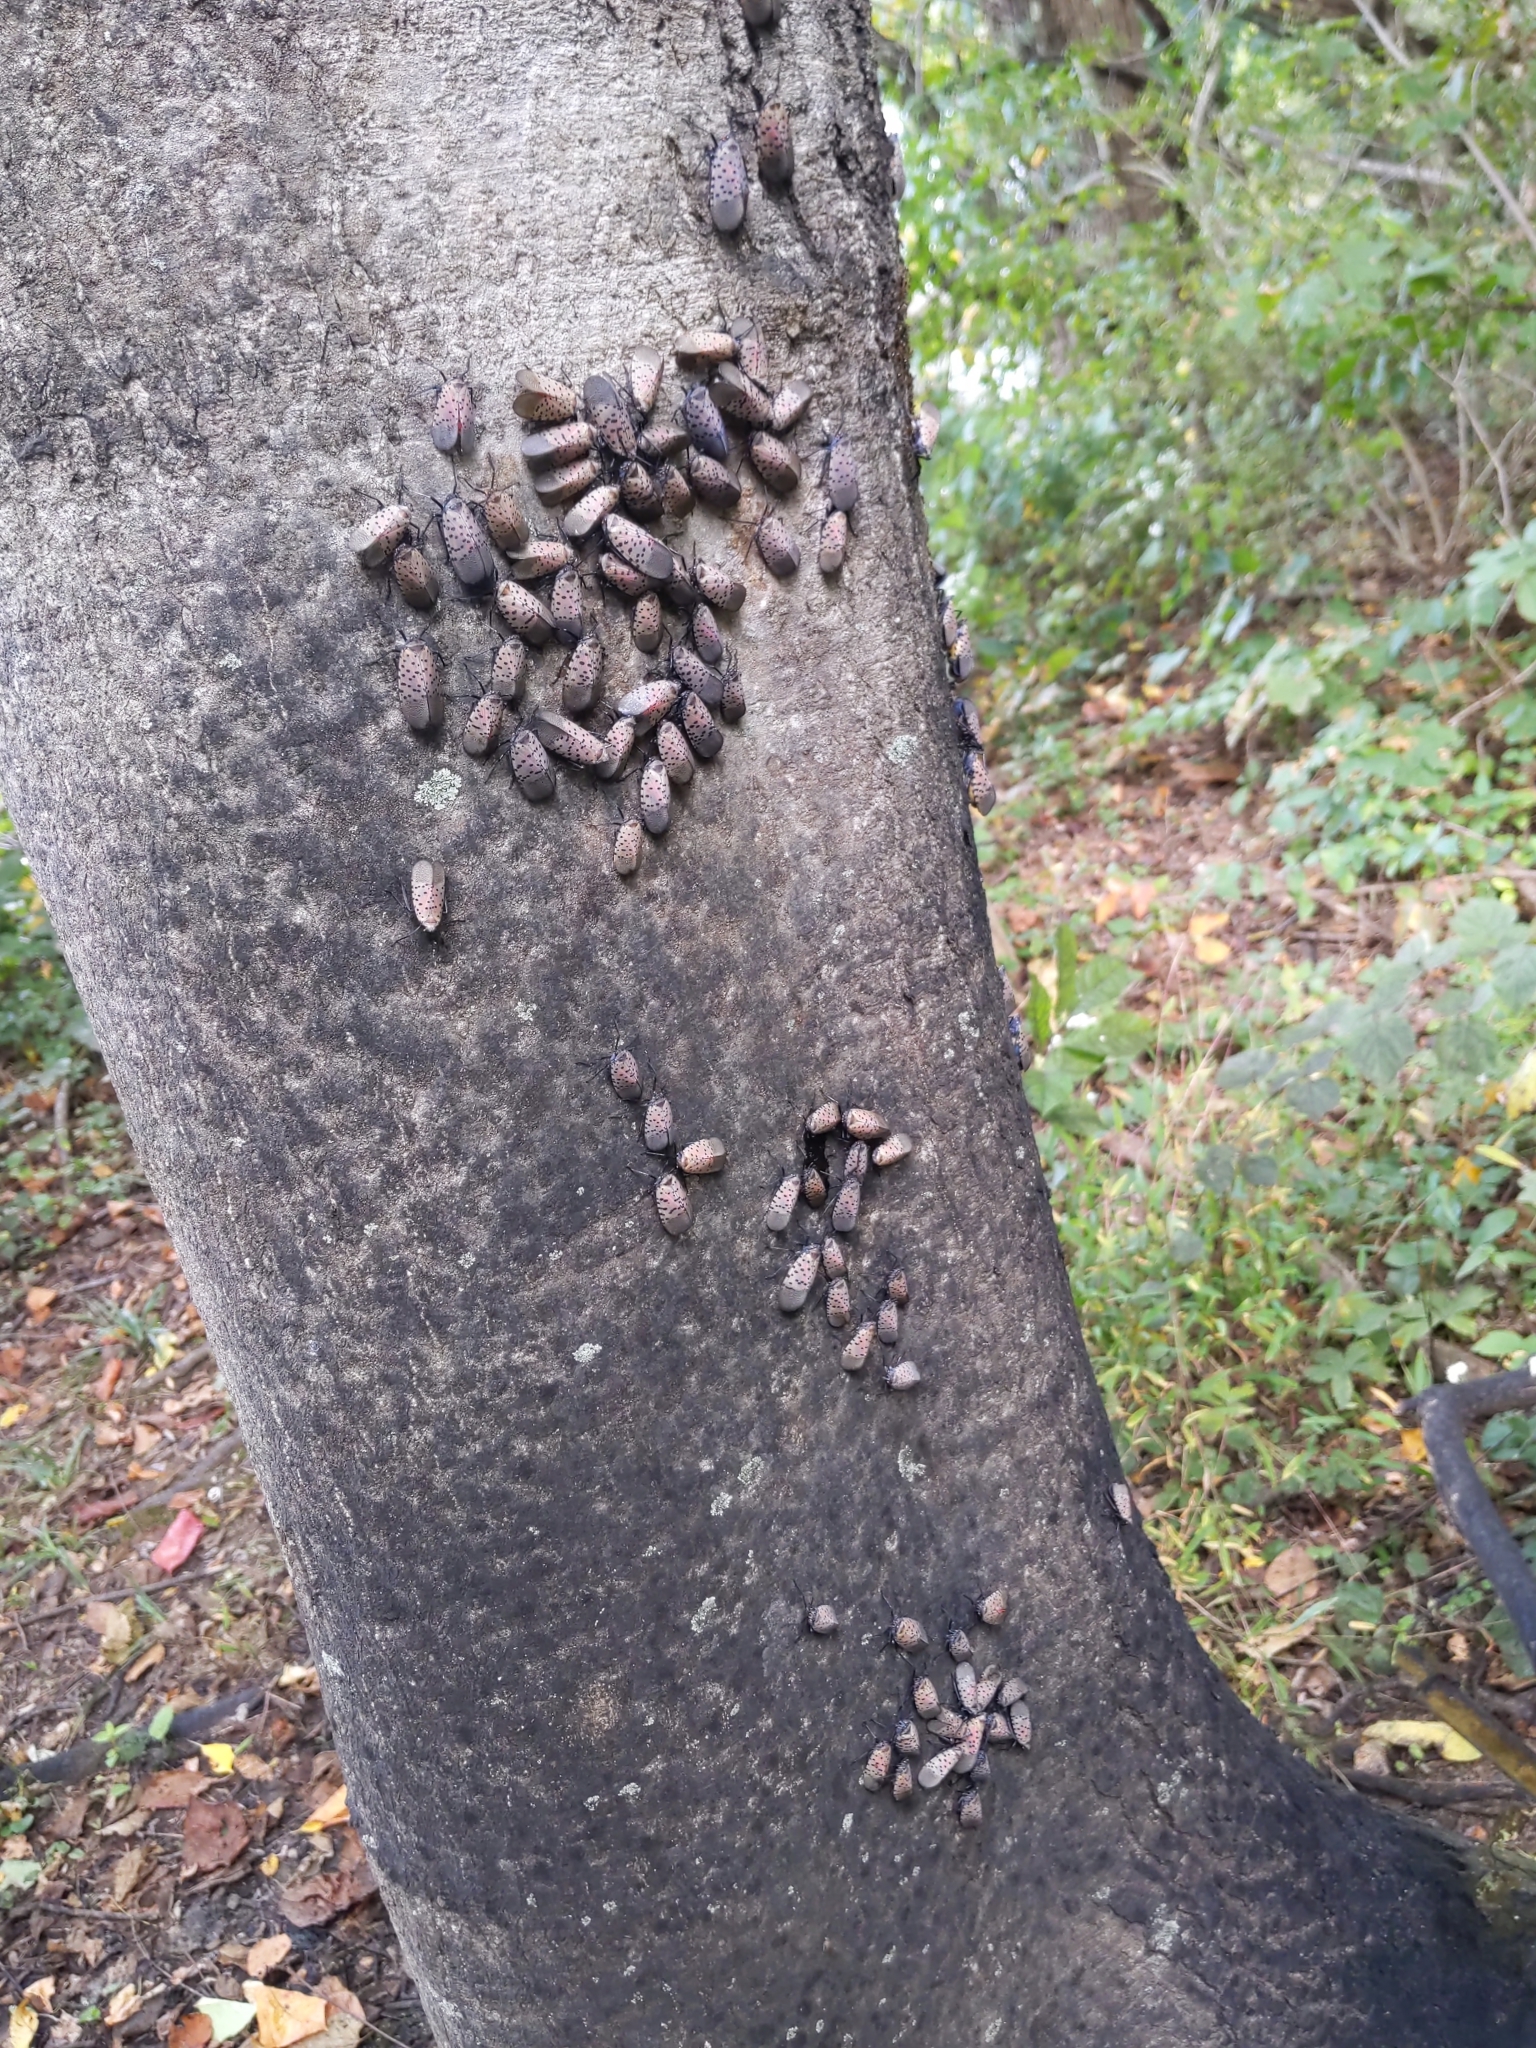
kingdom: Animalia
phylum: Arthropoda
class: Insecta
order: Hemiptera
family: Fulgoridae
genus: Lycorma
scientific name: Lycorma delicatula
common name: Spotted lanternfly
